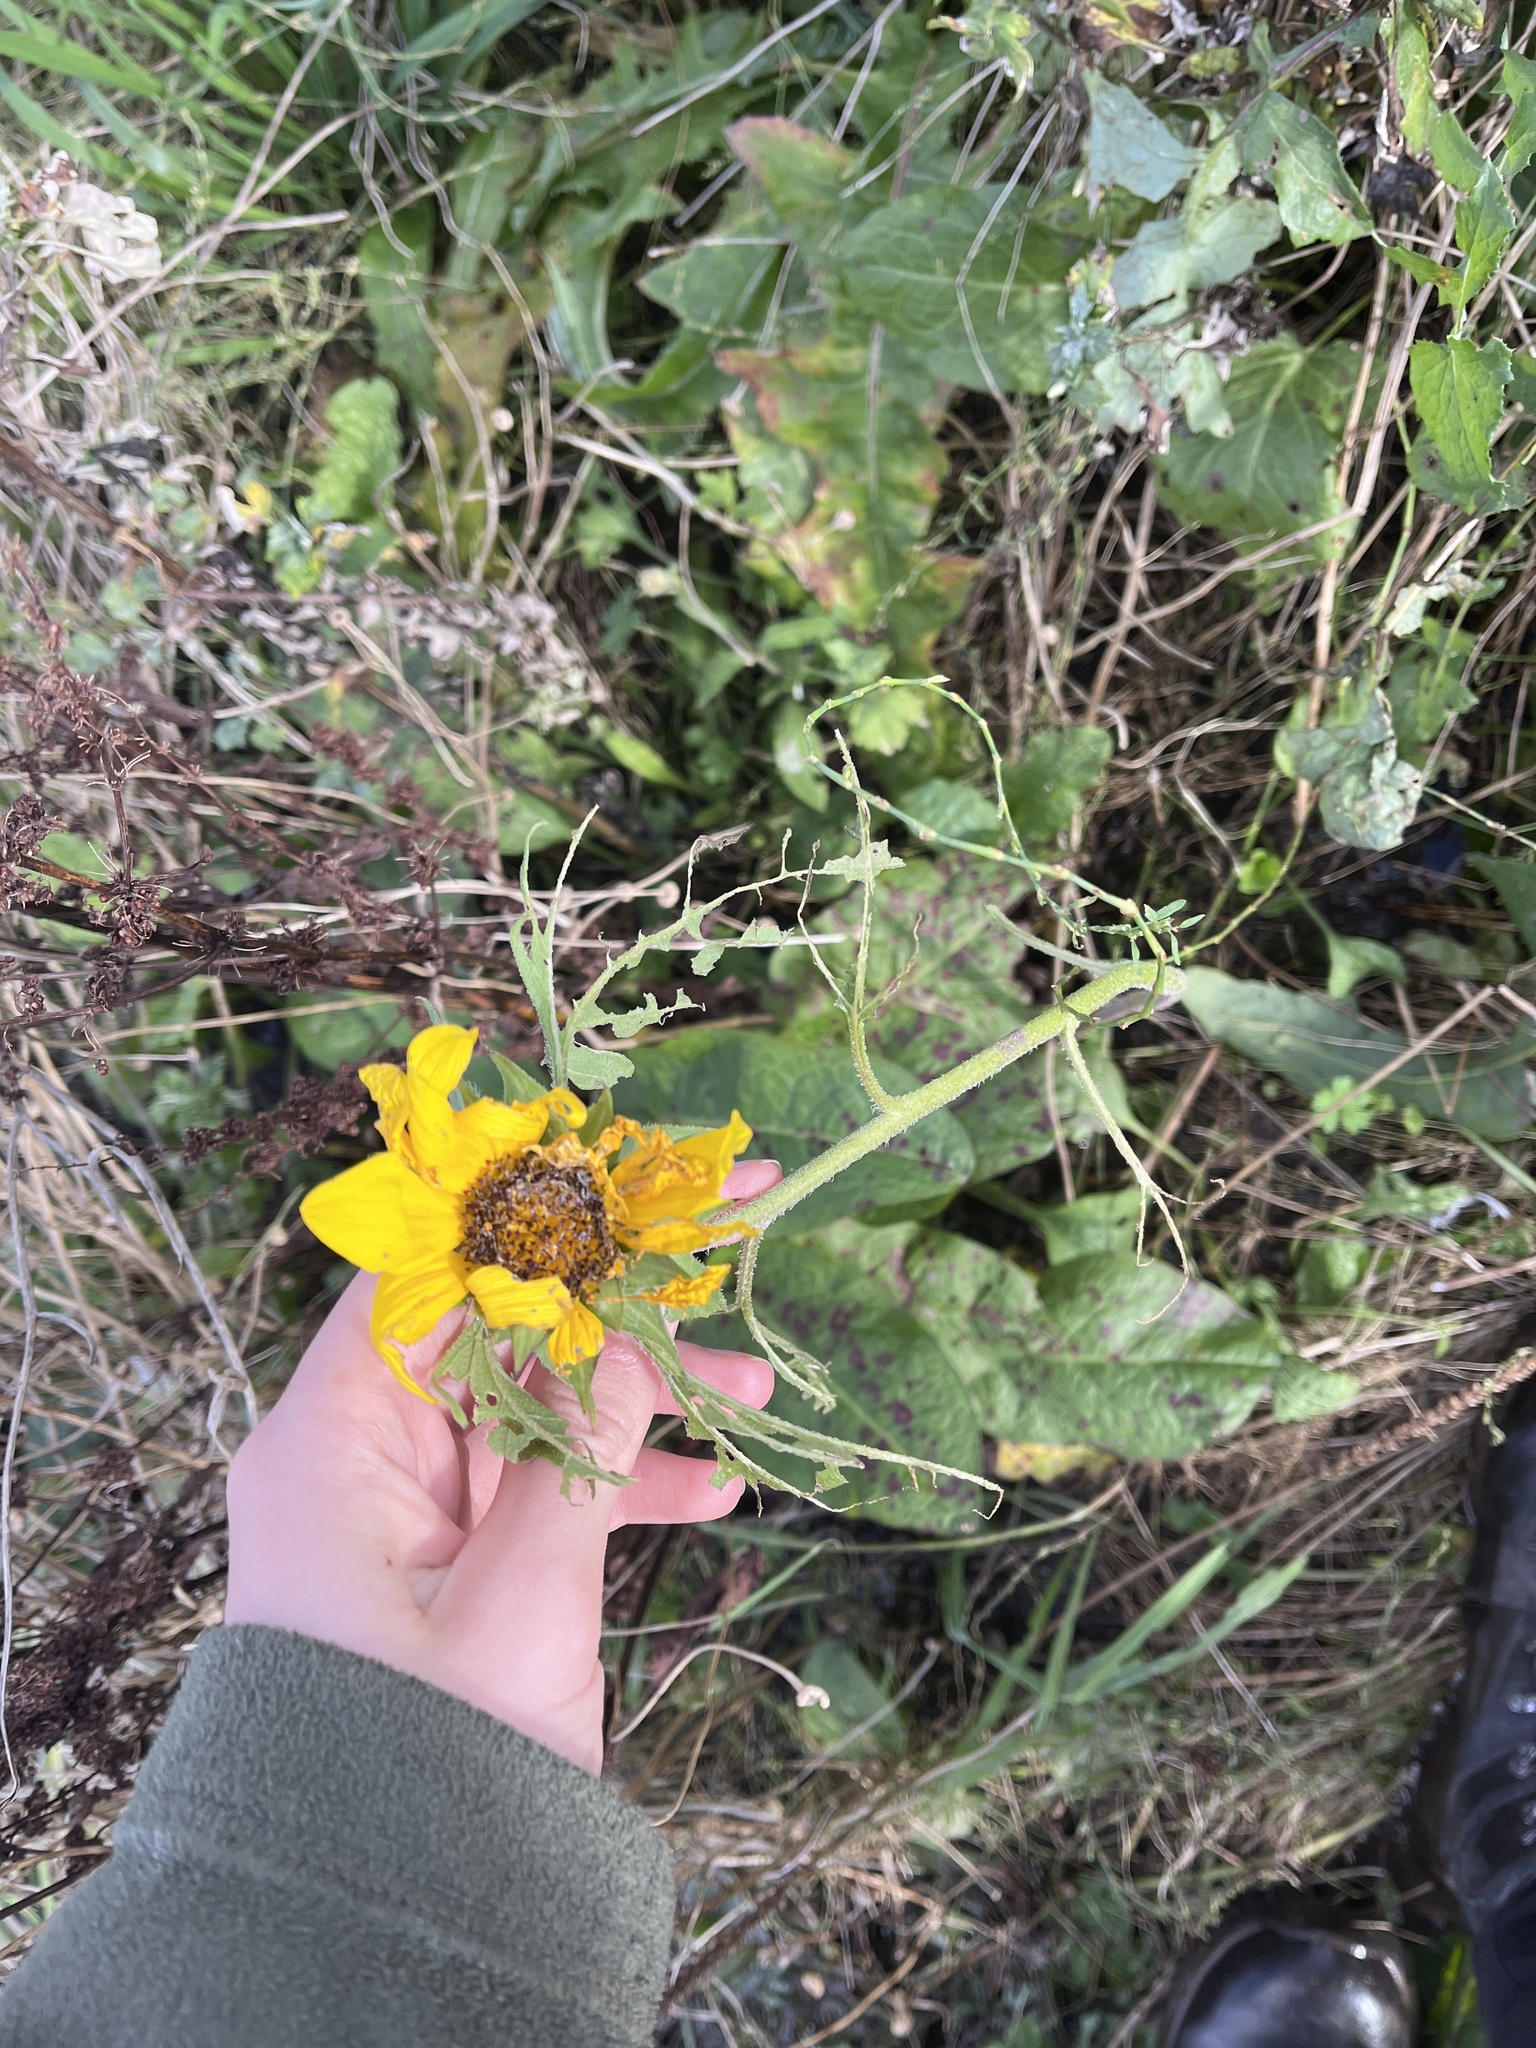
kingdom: Plantae
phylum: Tracheophyta
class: Magnoliopsida
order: Asterales
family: Asteraceae
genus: Helianthus
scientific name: Helianthus annuus
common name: Sunflower
